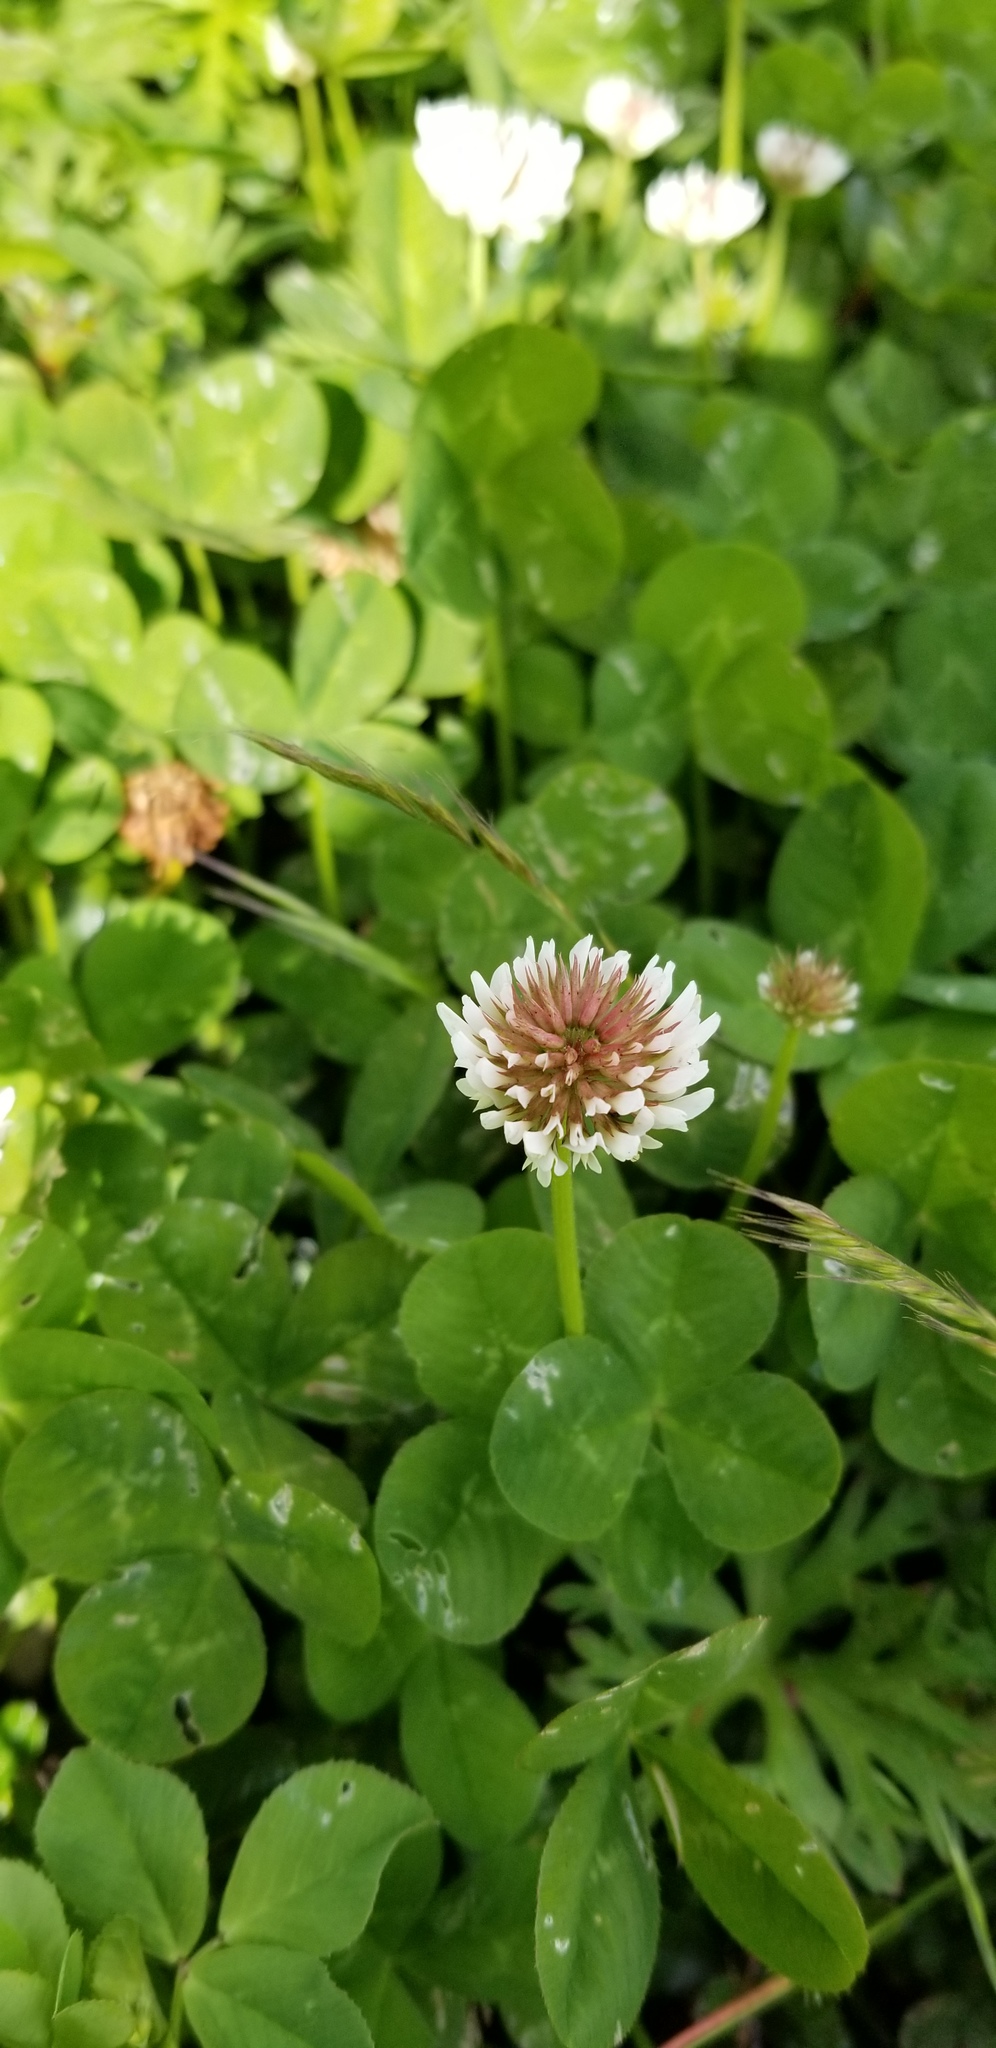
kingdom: Plantae
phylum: Tracheophyta
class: Magnoliopsida
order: Fabales
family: Fabaceae
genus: Trifolium
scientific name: Trifolium repens
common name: White clover
